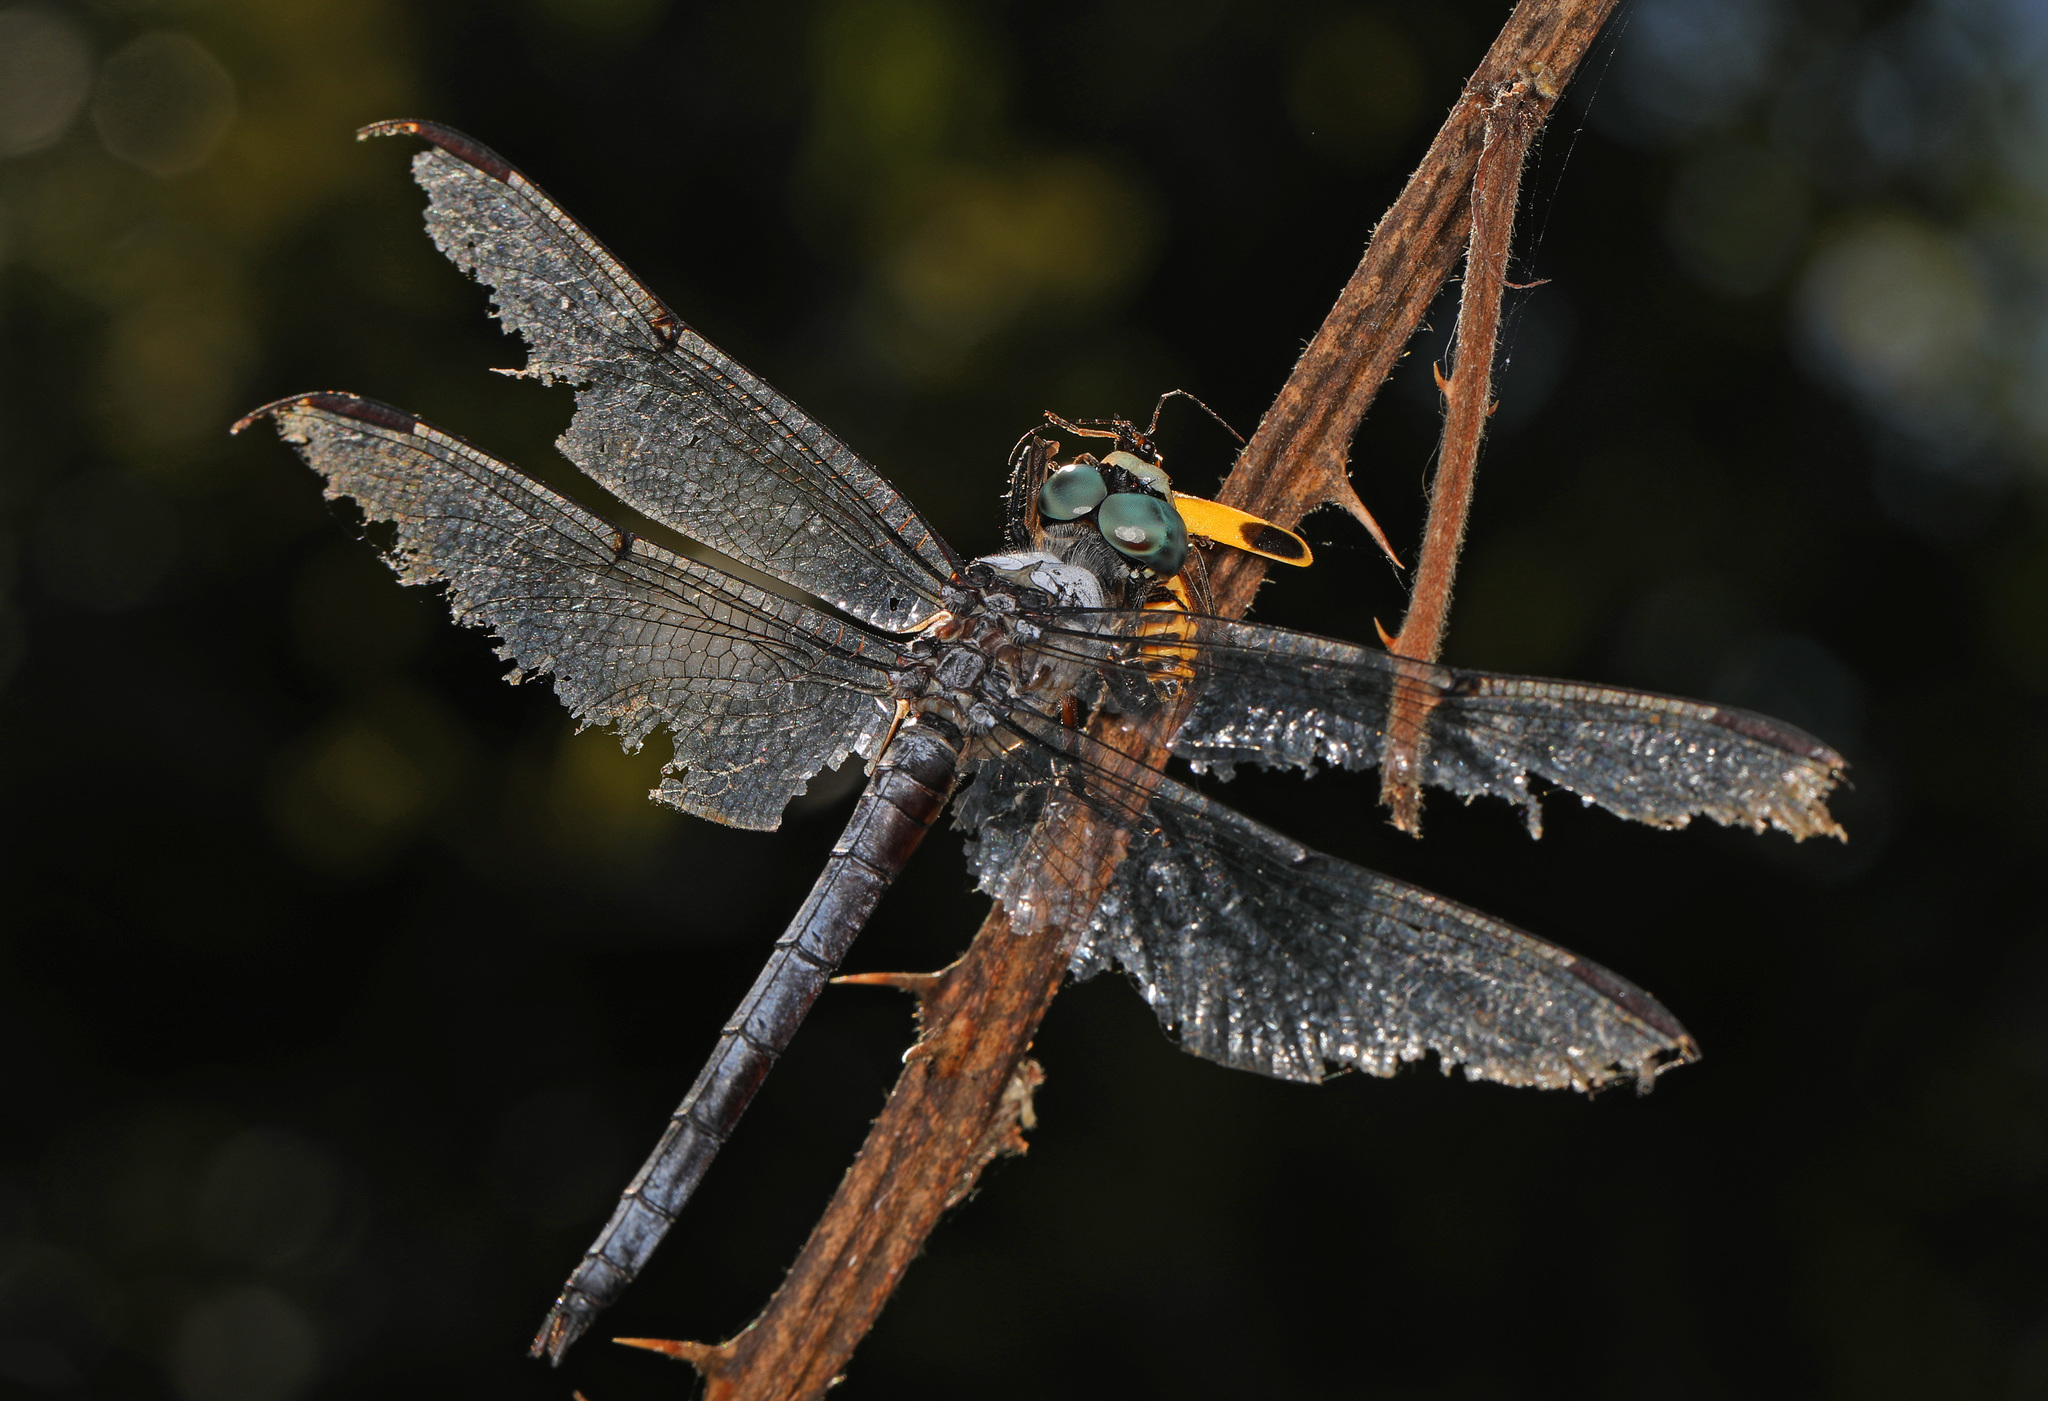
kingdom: Animalia
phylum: Arthropoda
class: Insecta
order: Odonata
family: Libellulidae
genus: Libellula
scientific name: Libellula vibrans
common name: Great blue skimmer
